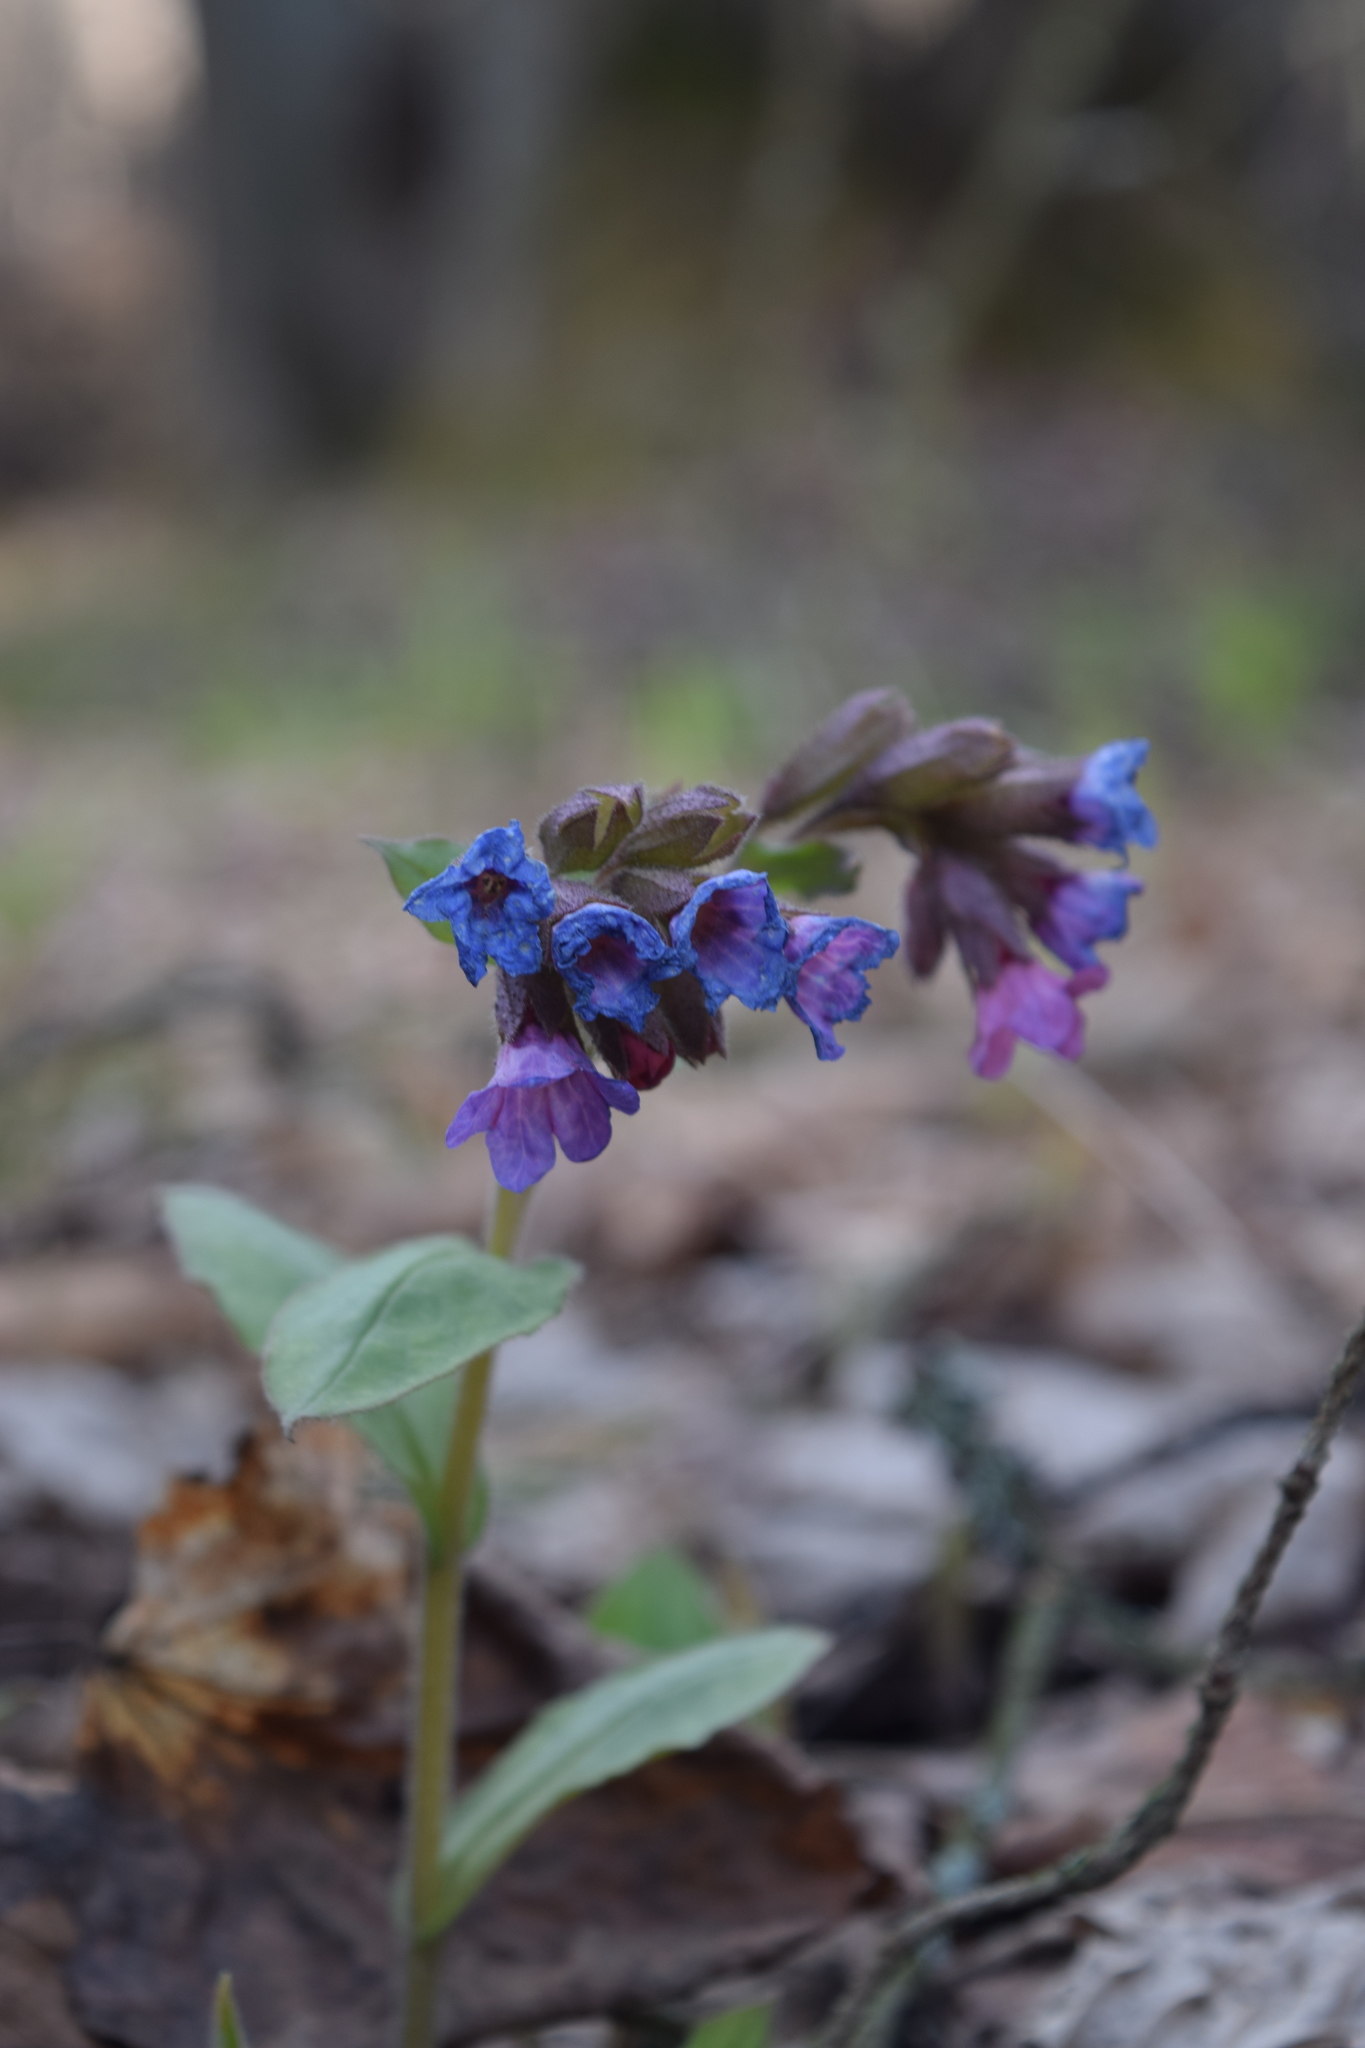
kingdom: Plantae
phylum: Tracheophyta
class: Magnoliopsida
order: Boraginales
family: Boraginaceae
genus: Pulmonaria
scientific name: Pulmonaria obscura
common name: Suffolk lungwort
